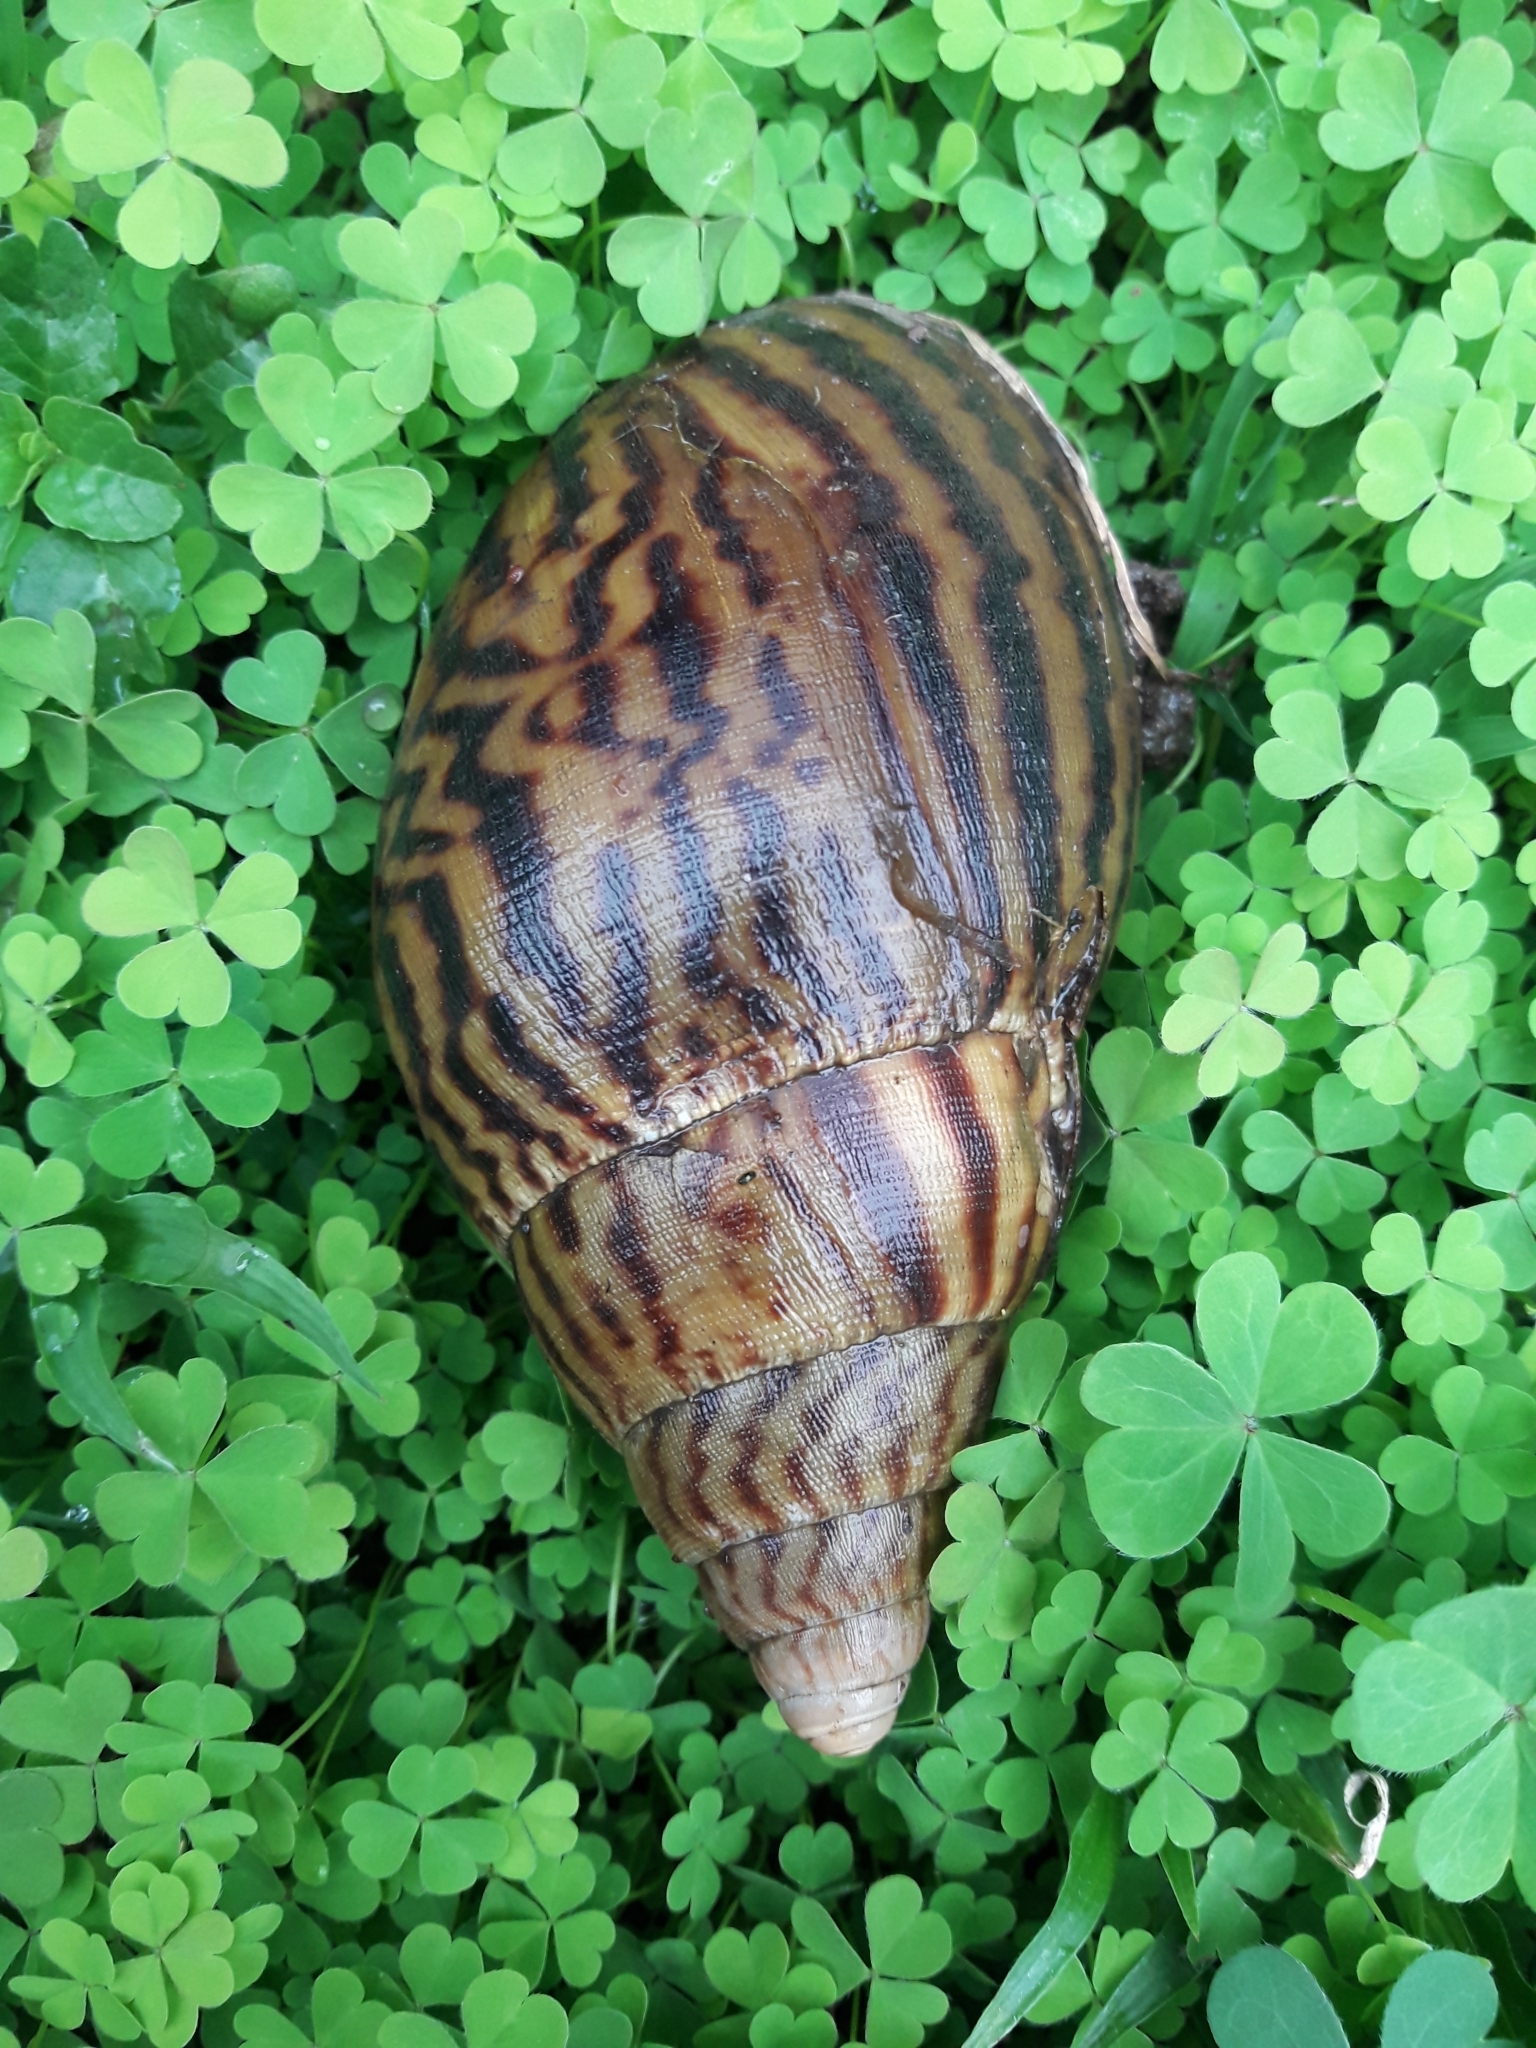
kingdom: Animalia
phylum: Mollusca
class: Gastropoda
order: Stylommatophora
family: Achatinidae
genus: Cochlitoma
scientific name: Cochlitoma granulata
